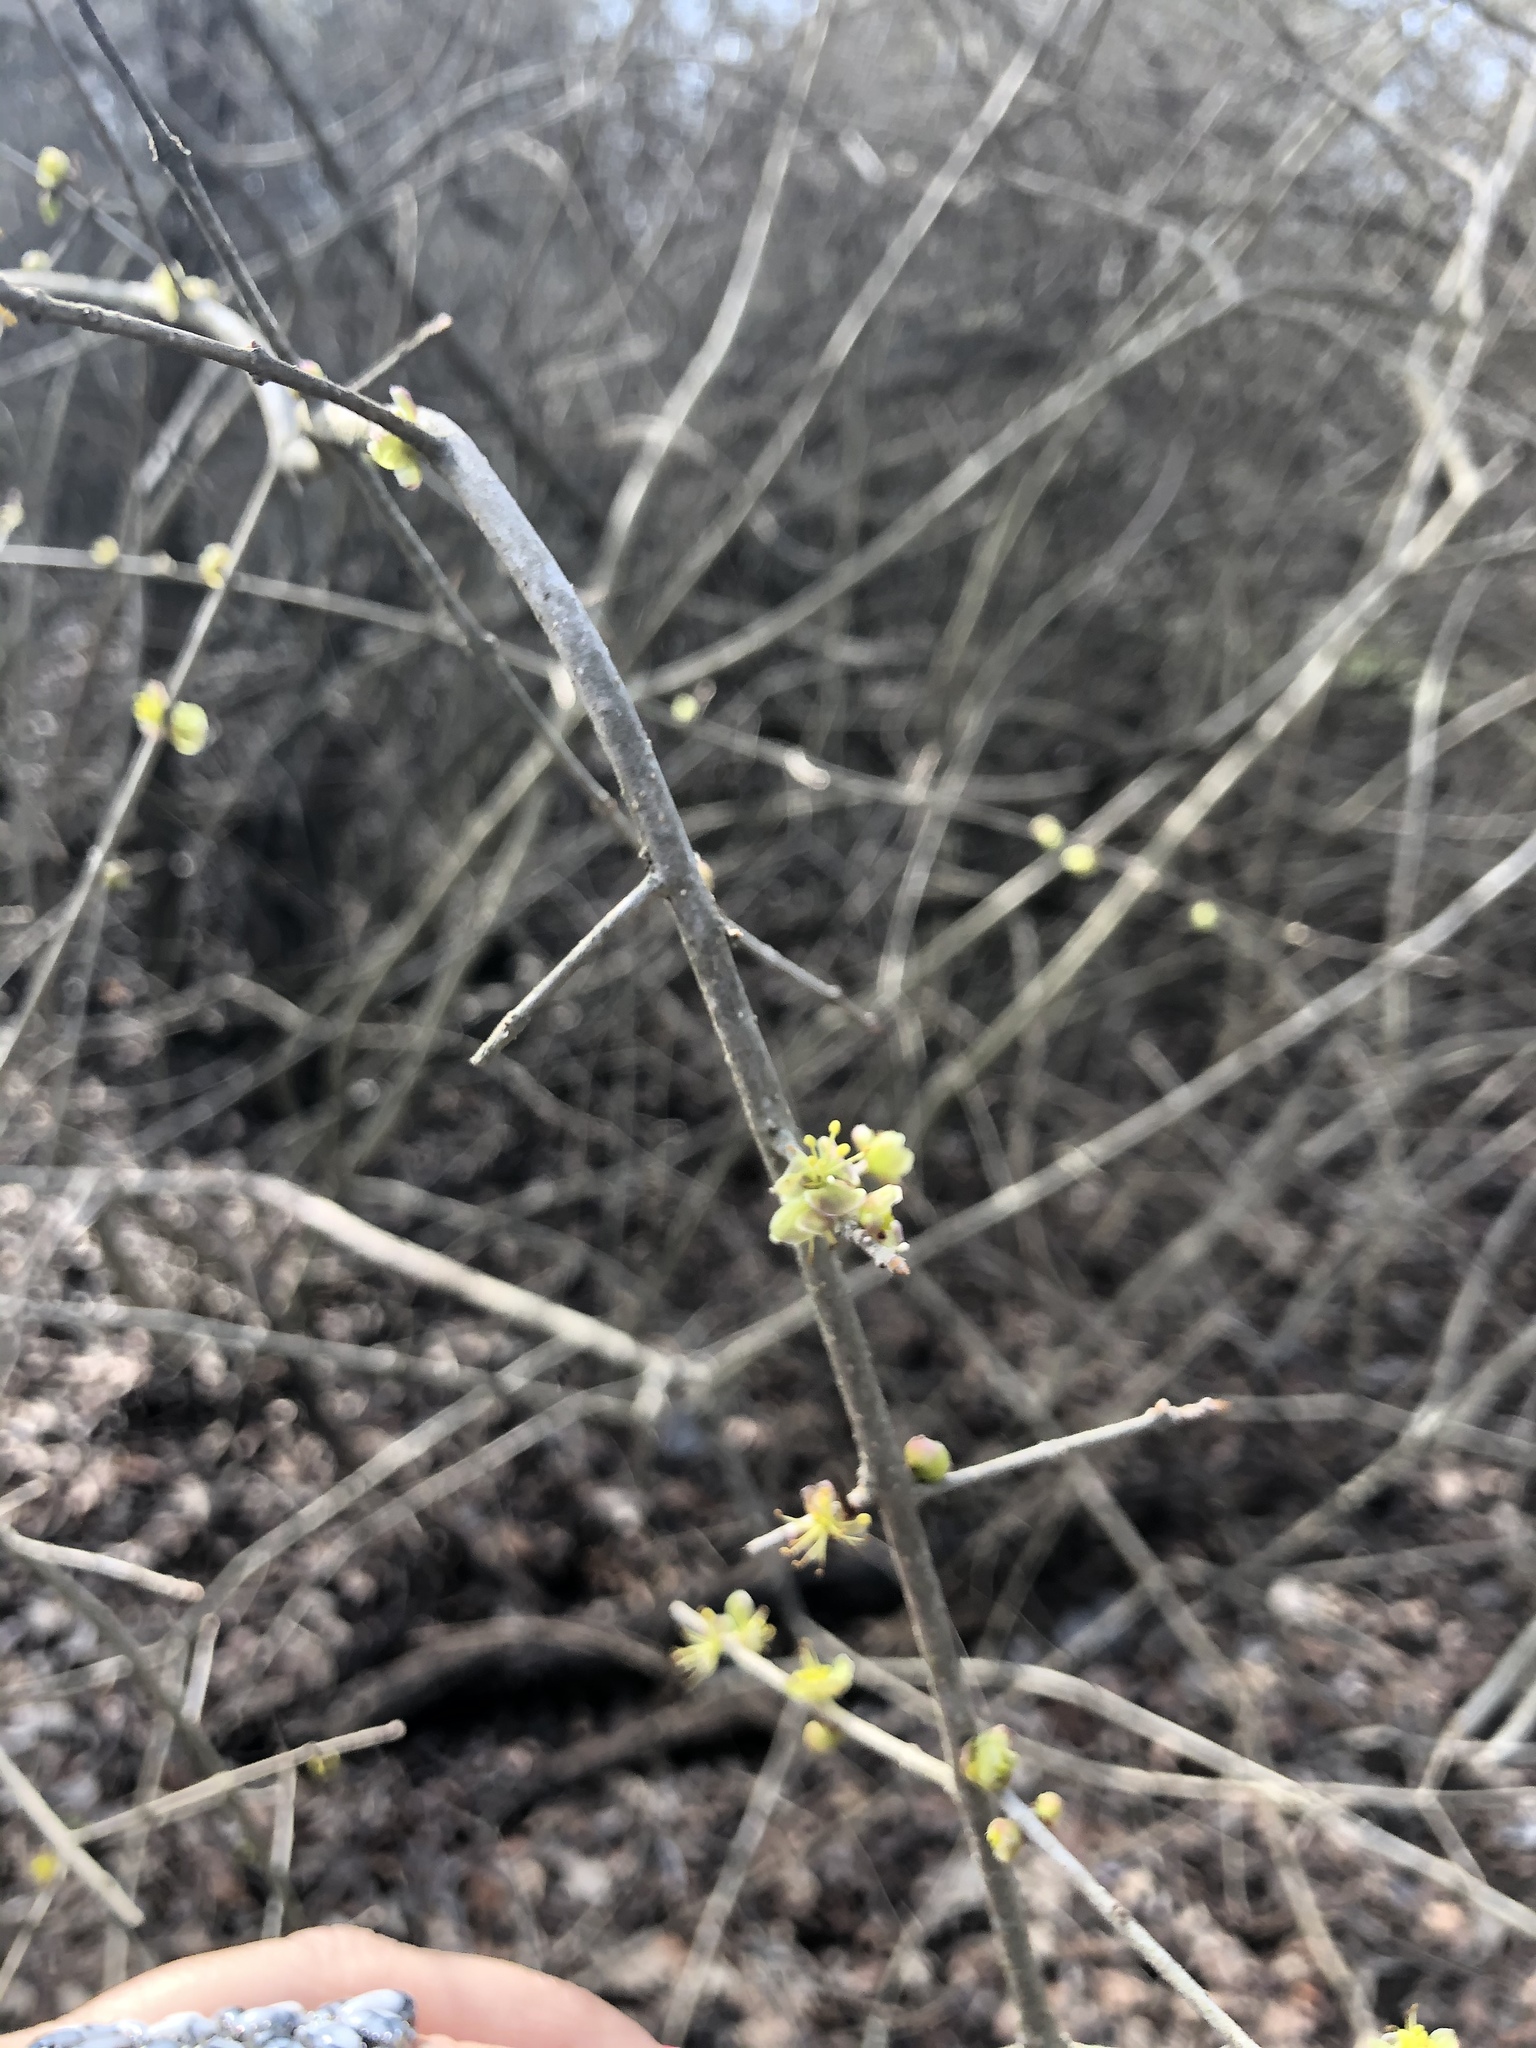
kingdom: Plantae
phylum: Tracheophyta
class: Magnoliopsida
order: Lamiales
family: Oleaceae
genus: Forestiera
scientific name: Forestiera pubescens
